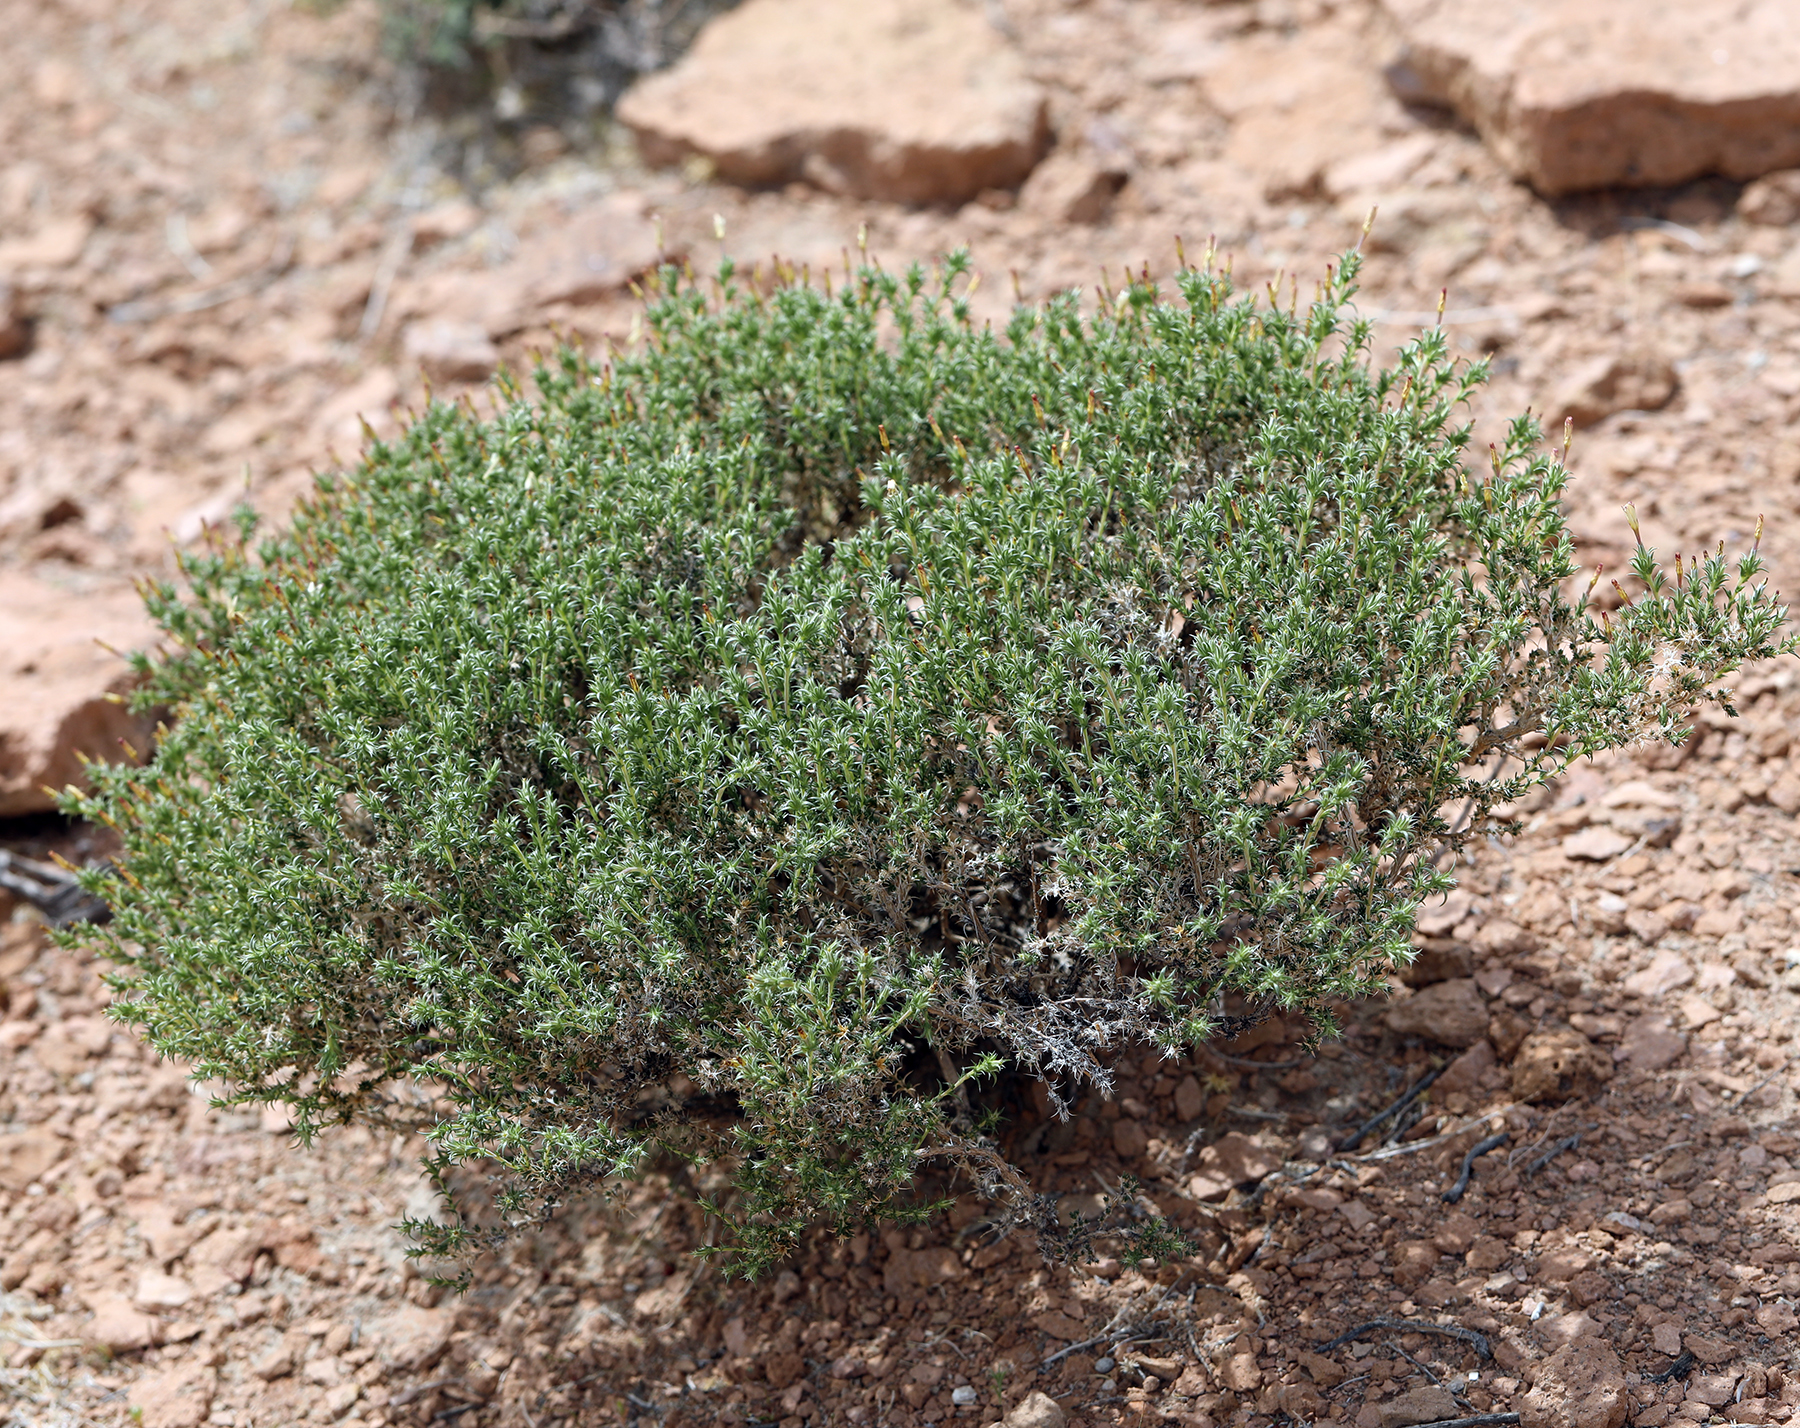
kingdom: Plantae
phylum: Tracheophyta
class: Magnoliopsida
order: Ericales
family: Polemoniaceae
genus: Linanthus
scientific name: Linanthus pungens
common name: Granite prickly phlox
